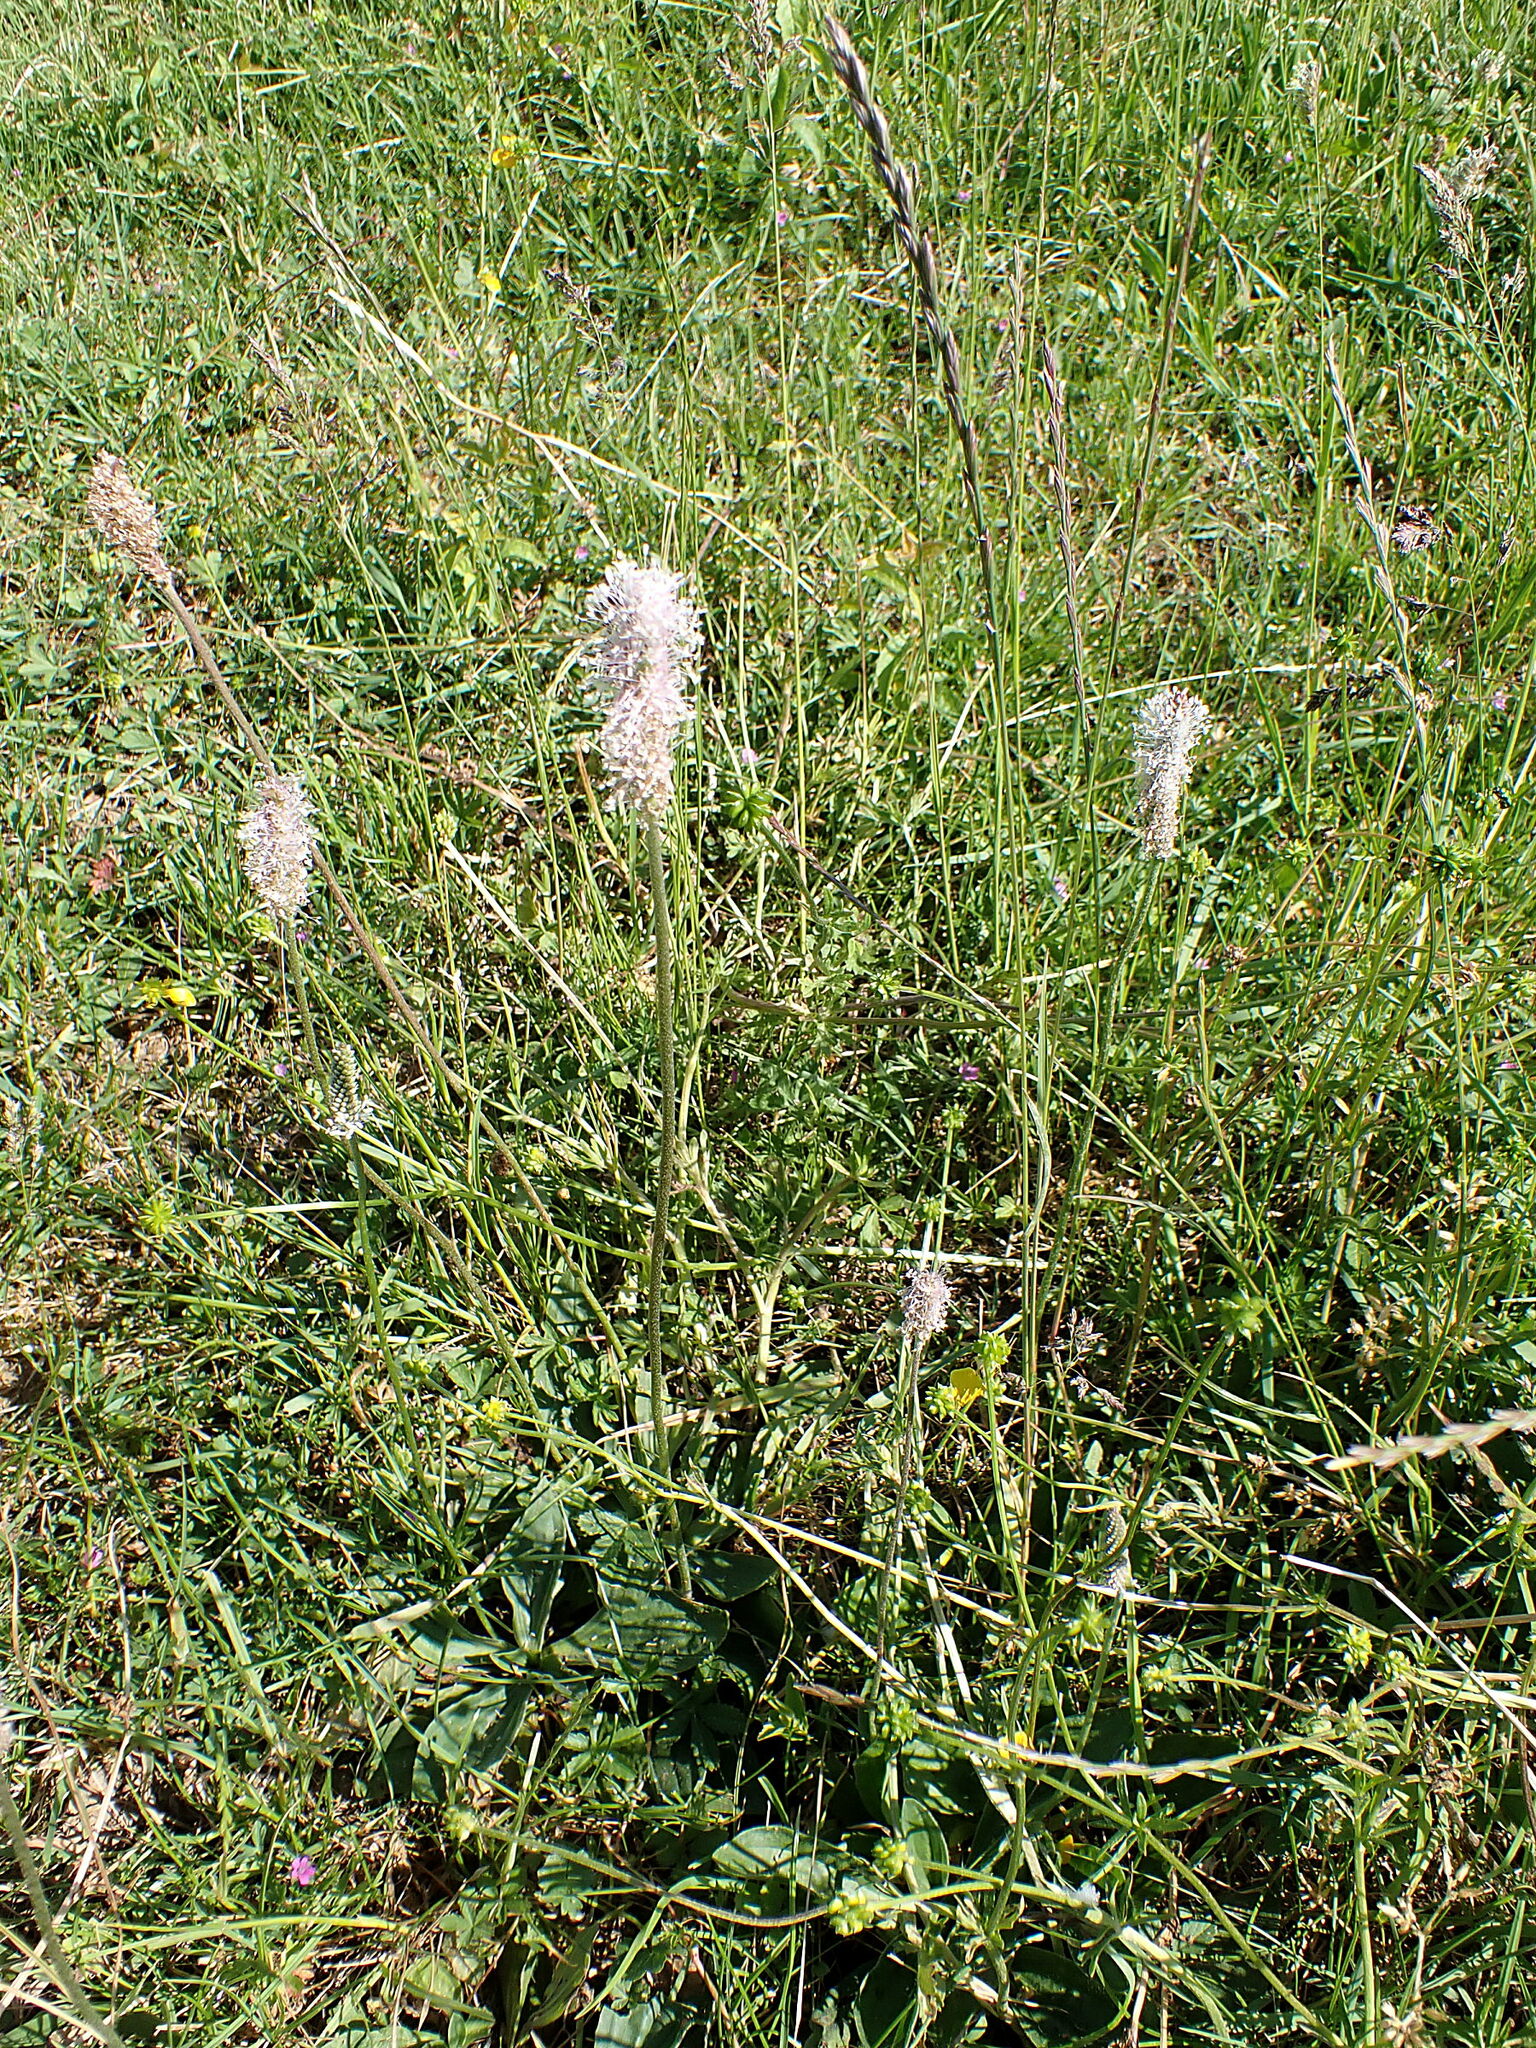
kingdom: Plantae
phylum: Tracheophyta
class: Magnoliopsida
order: Lamiales
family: Plantaginaceae
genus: Plantago
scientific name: Plantago media
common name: Hoary plantain
